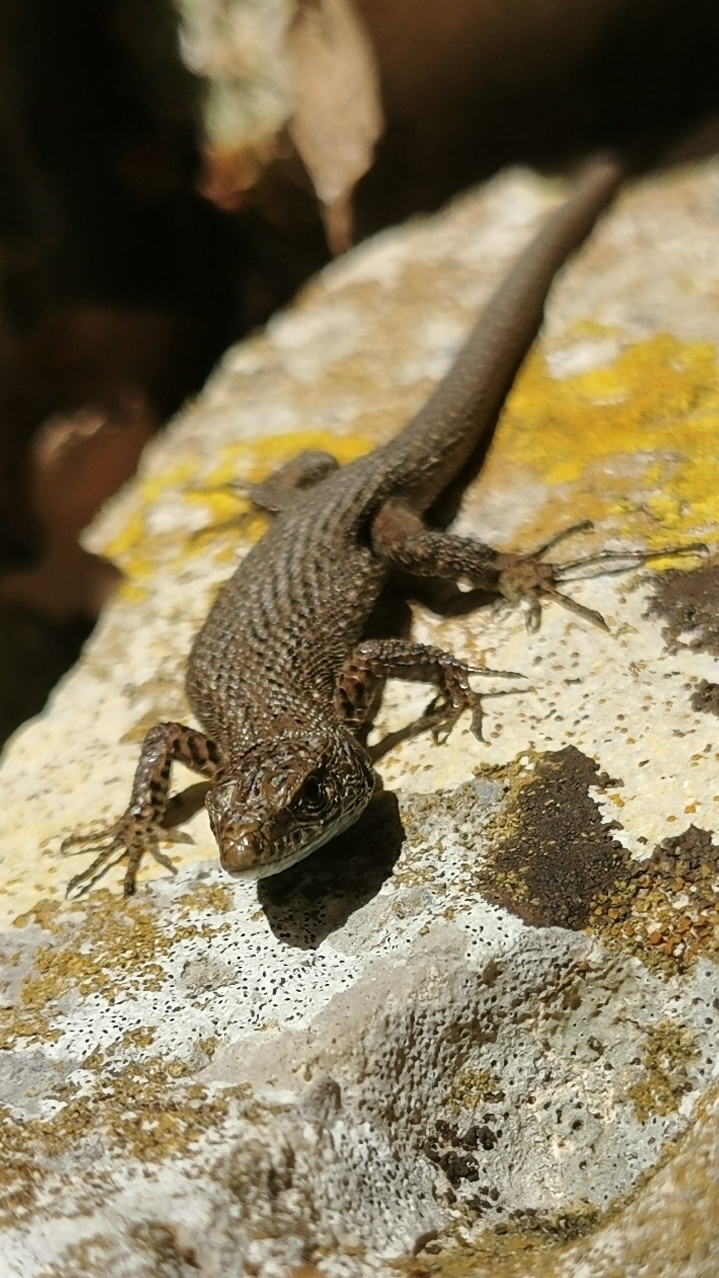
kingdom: Animalia
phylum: Chordata
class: Squamata
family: Lacertidae
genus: Algyroides
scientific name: Algyroides nigropunctatus
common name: Blue-throated keeled lizard
